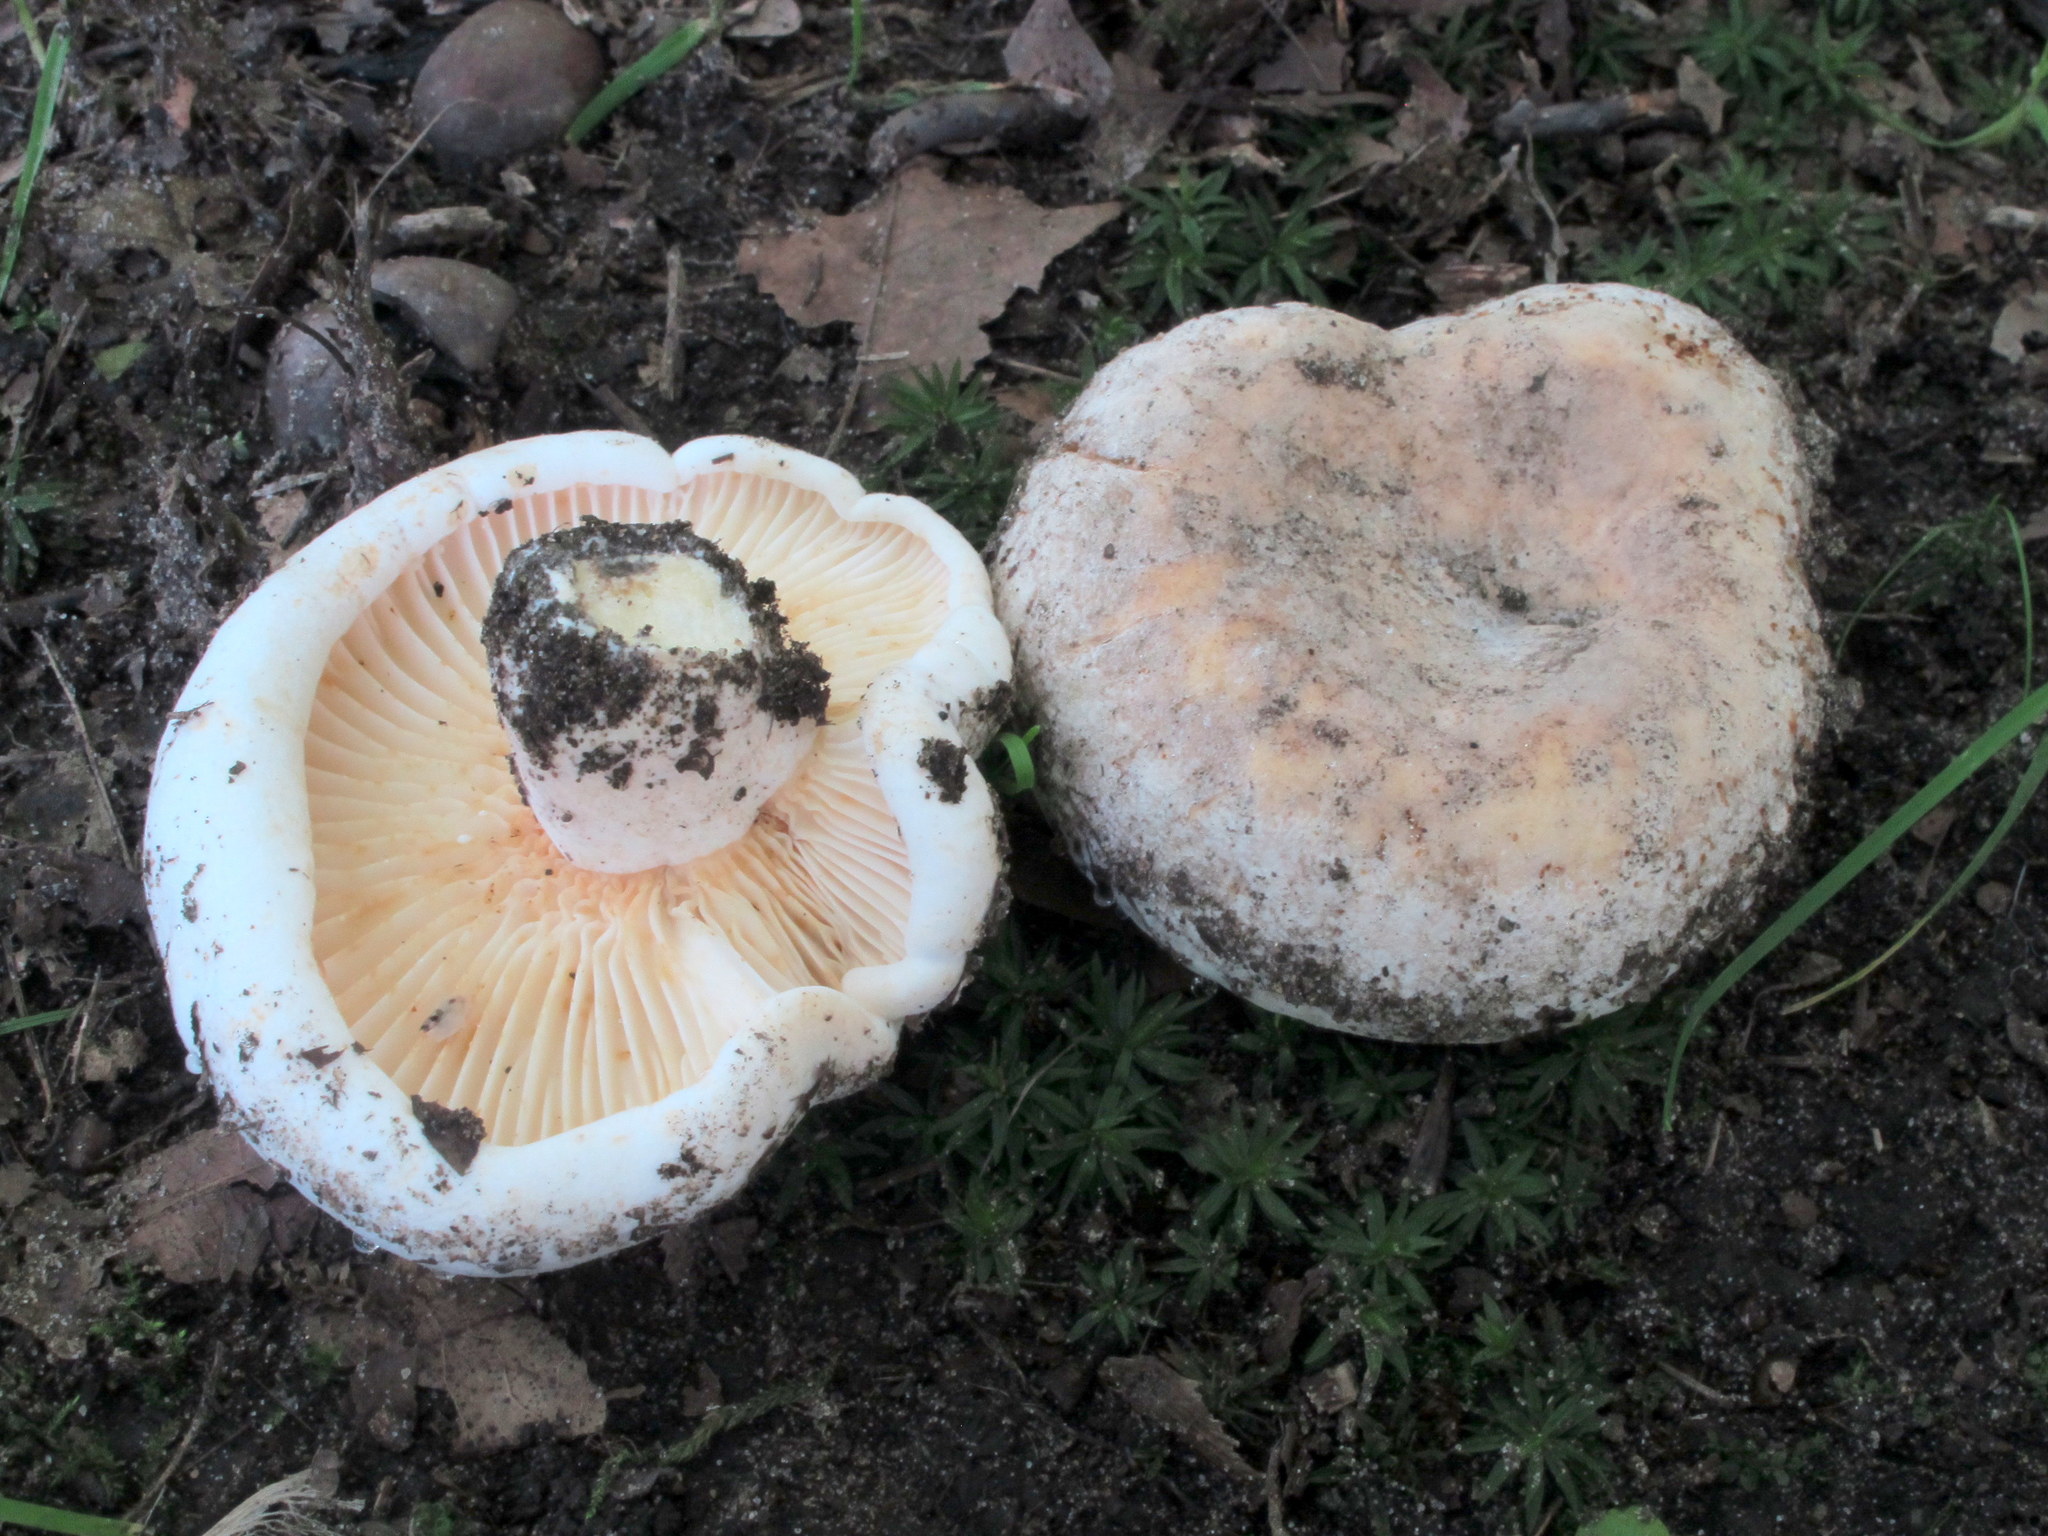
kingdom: Fungi
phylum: Basidiomycota
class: Agaricomycetes
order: Russulales
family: Russulaceae
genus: Lactifluus
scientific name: Lactifluus subvellereus
